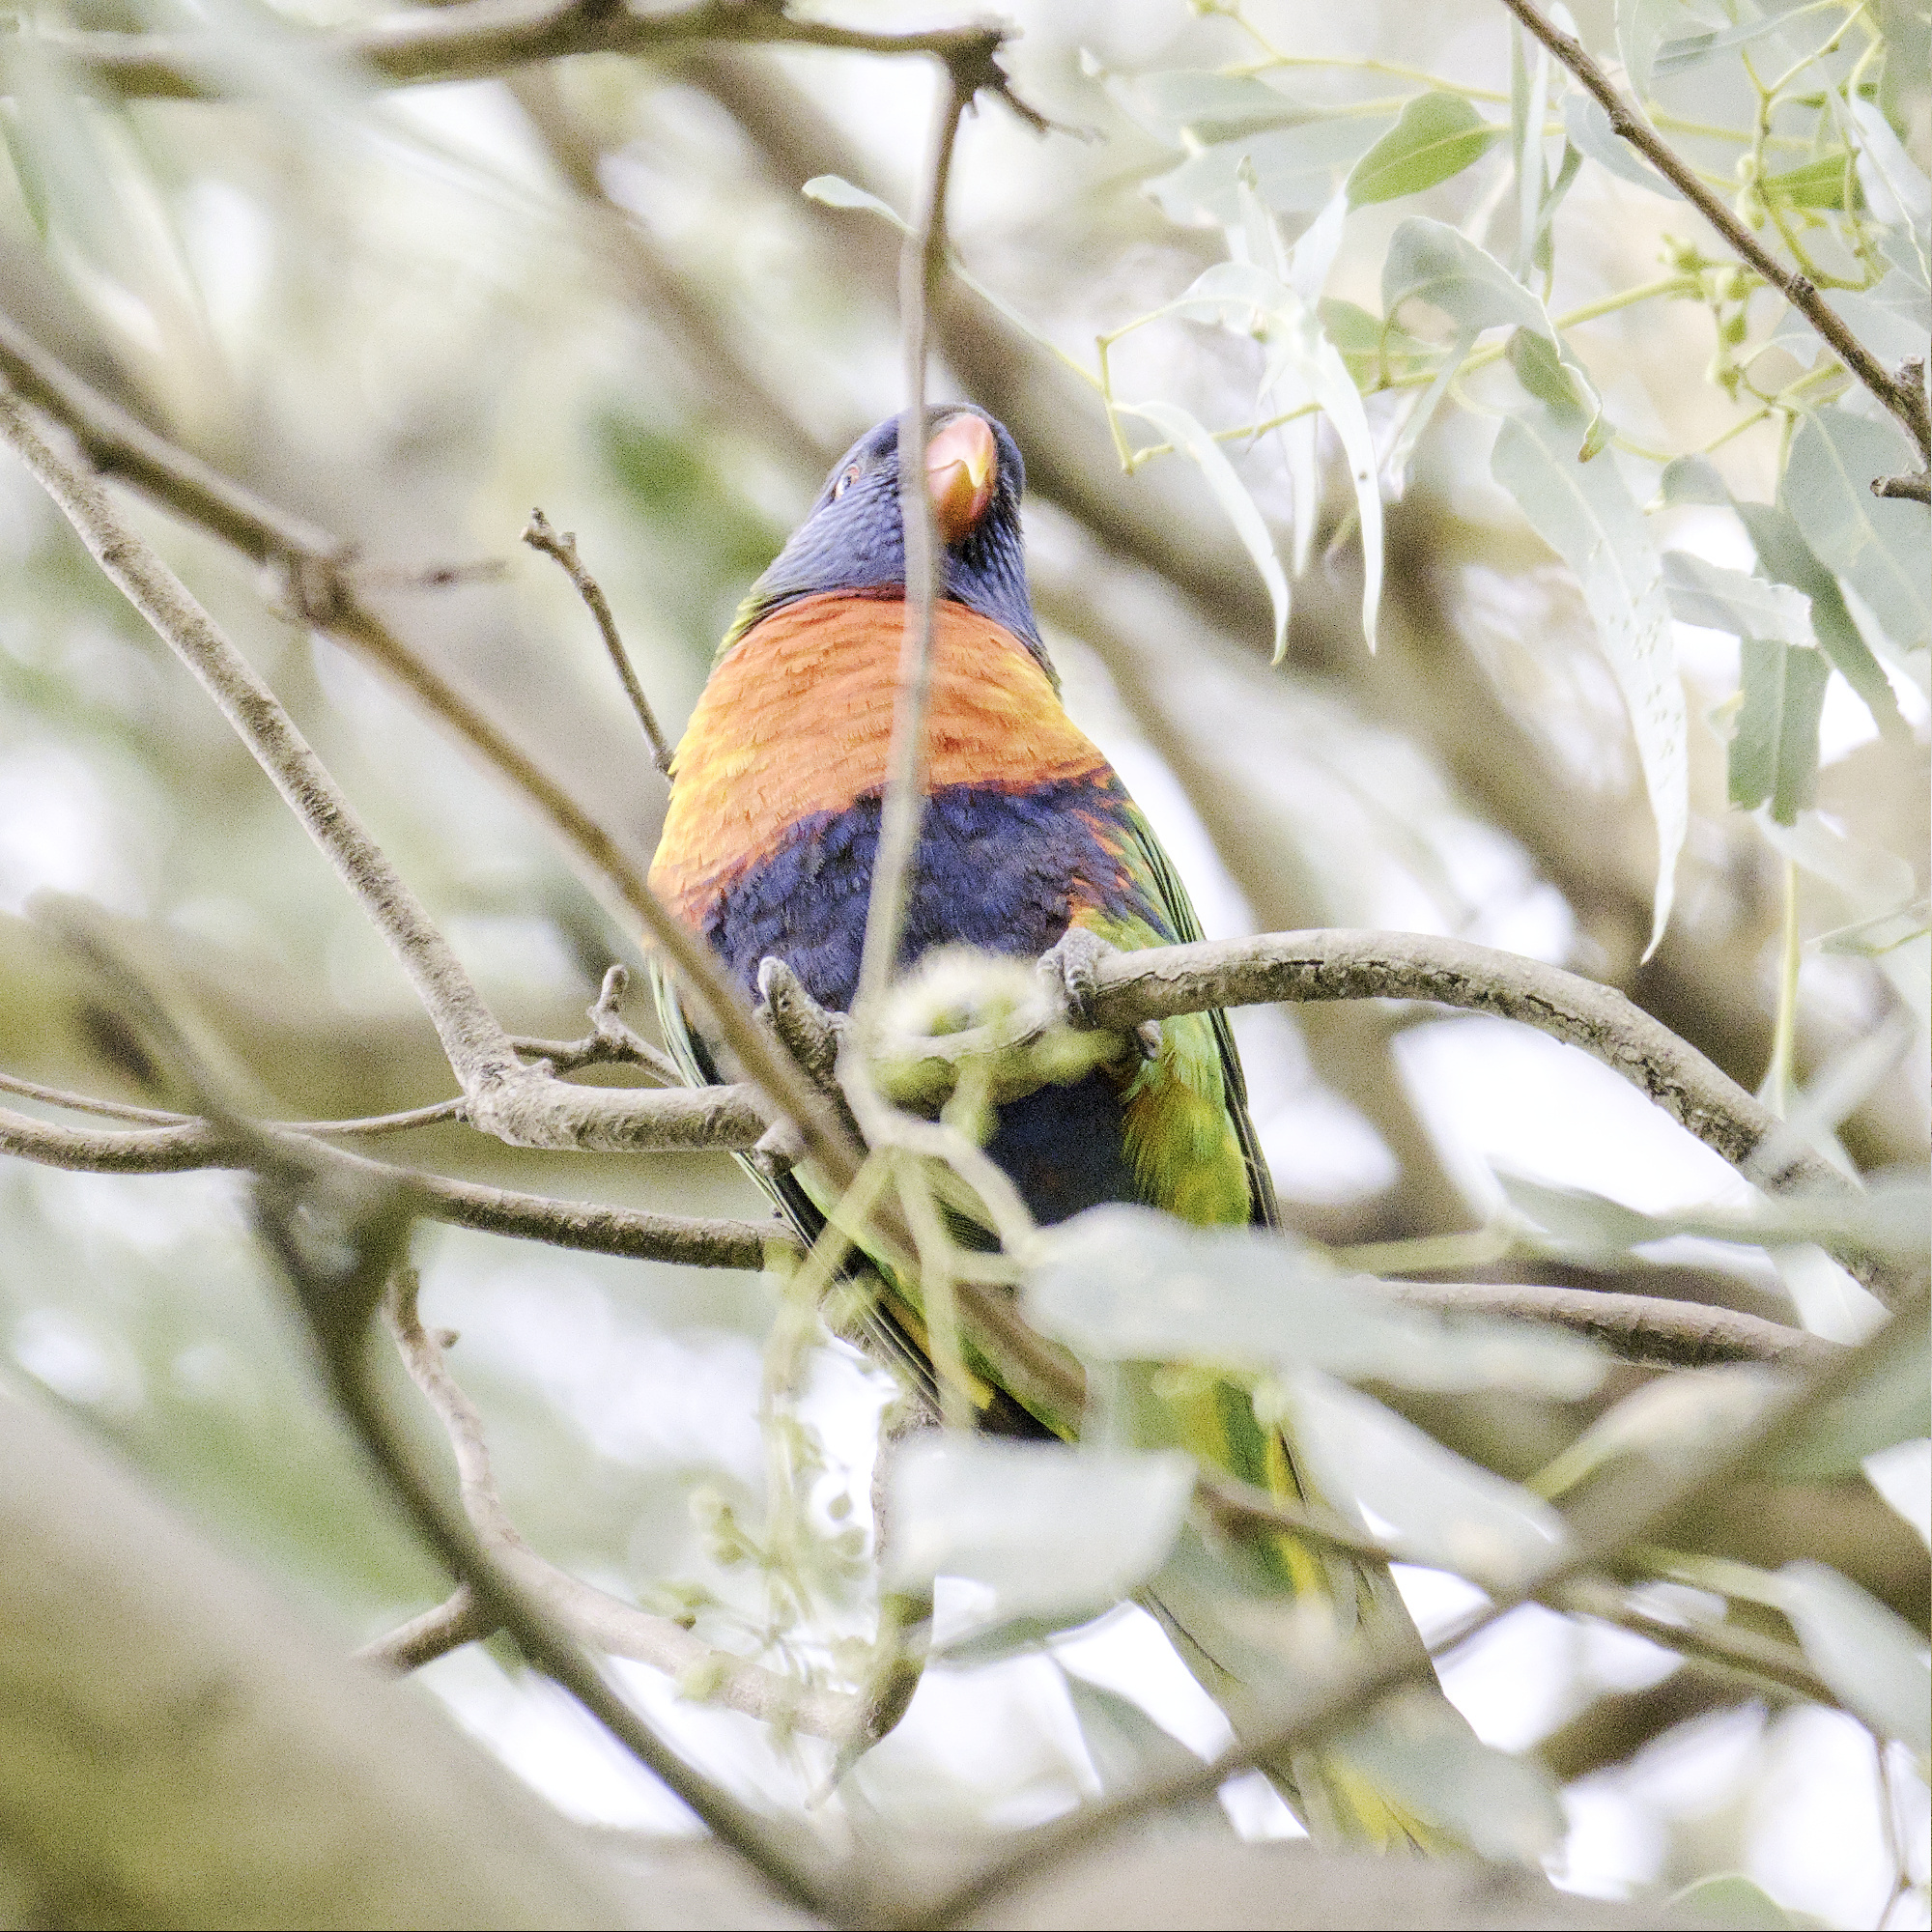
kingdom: Animalia
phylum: Chordata
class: Aves
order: Psittaciformes
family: Psittacidae
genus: Trichoglossus
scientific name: Trichoglossus haematodus
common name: Coconut lorikeet
